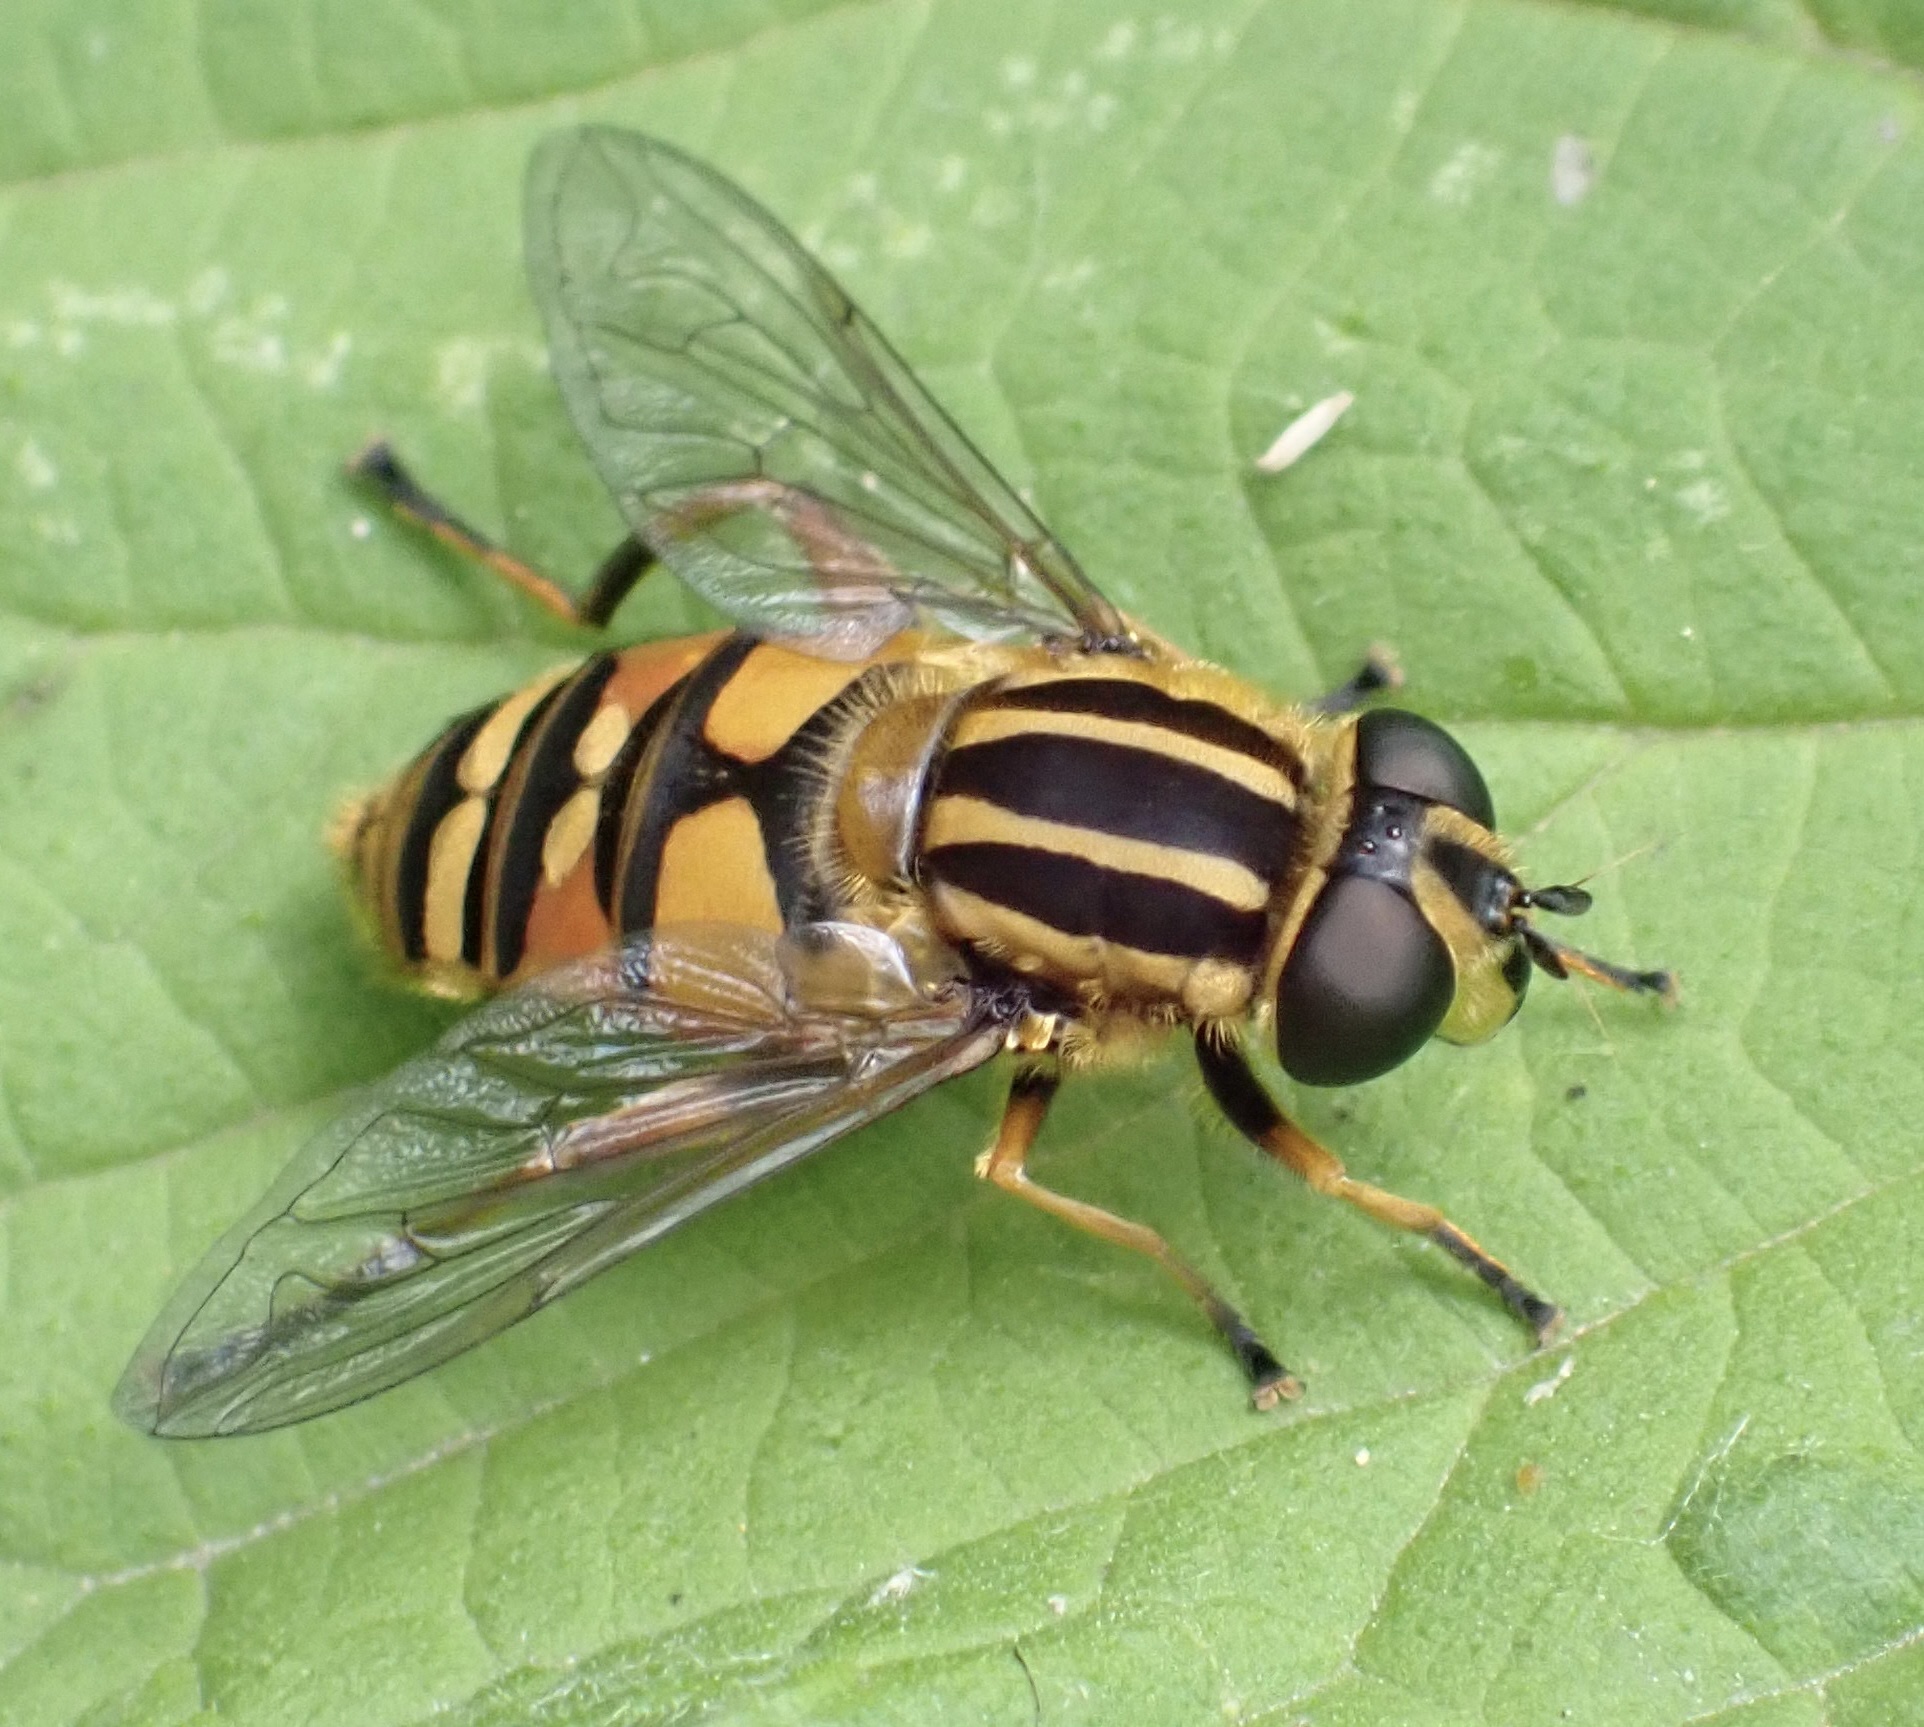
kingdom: Animalia
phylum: Arthropoda
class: Insecta
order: Diptera
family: Syrphidae
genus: Helophilus
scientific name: Helophilus pendulus
